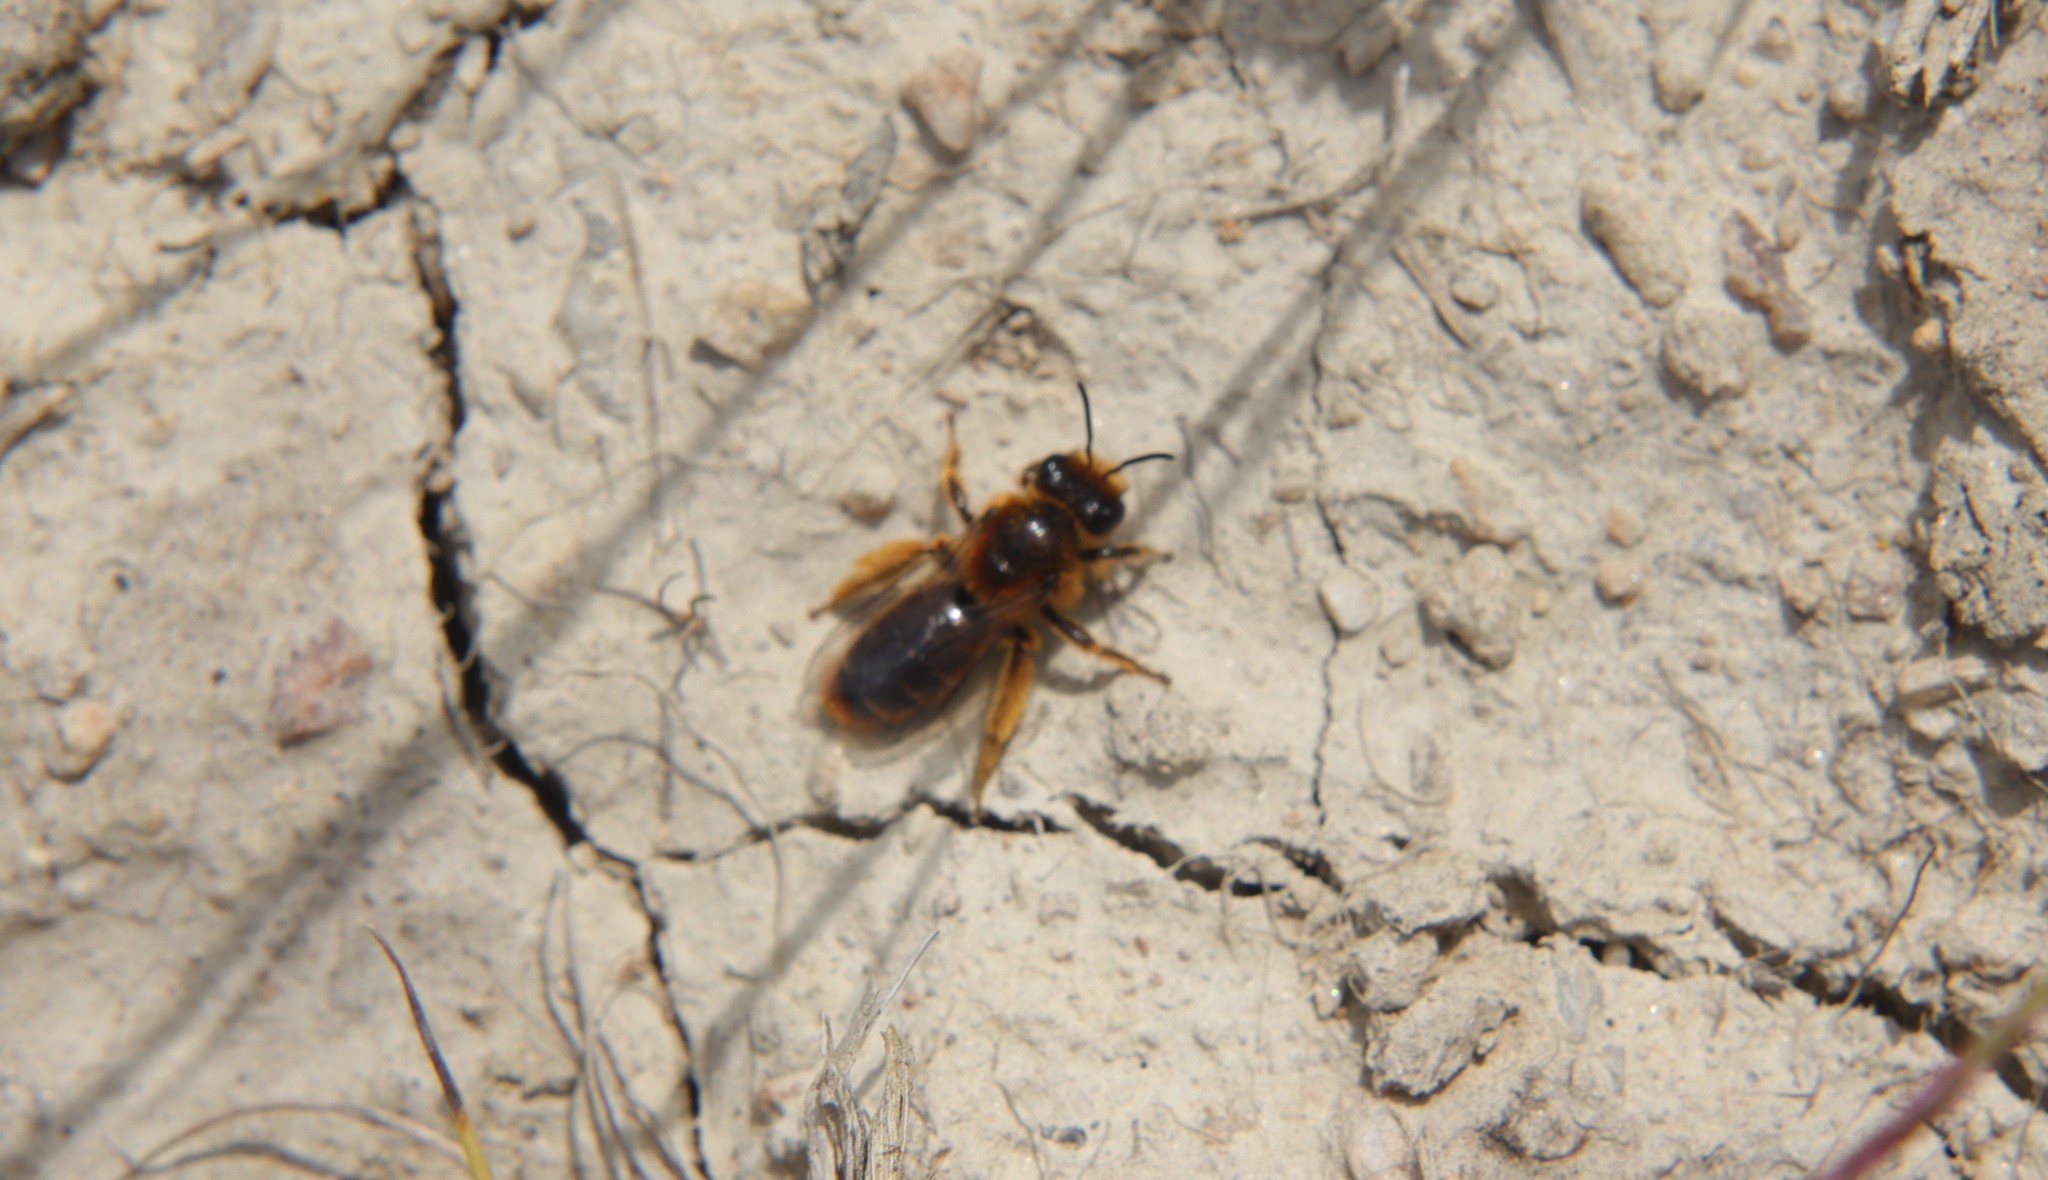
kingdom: Animalia
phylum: Arthropoda
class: Insecta
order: Hymenoptera
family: Colletidae
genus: Leioproctus
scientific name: Leioproctus fulvescens
